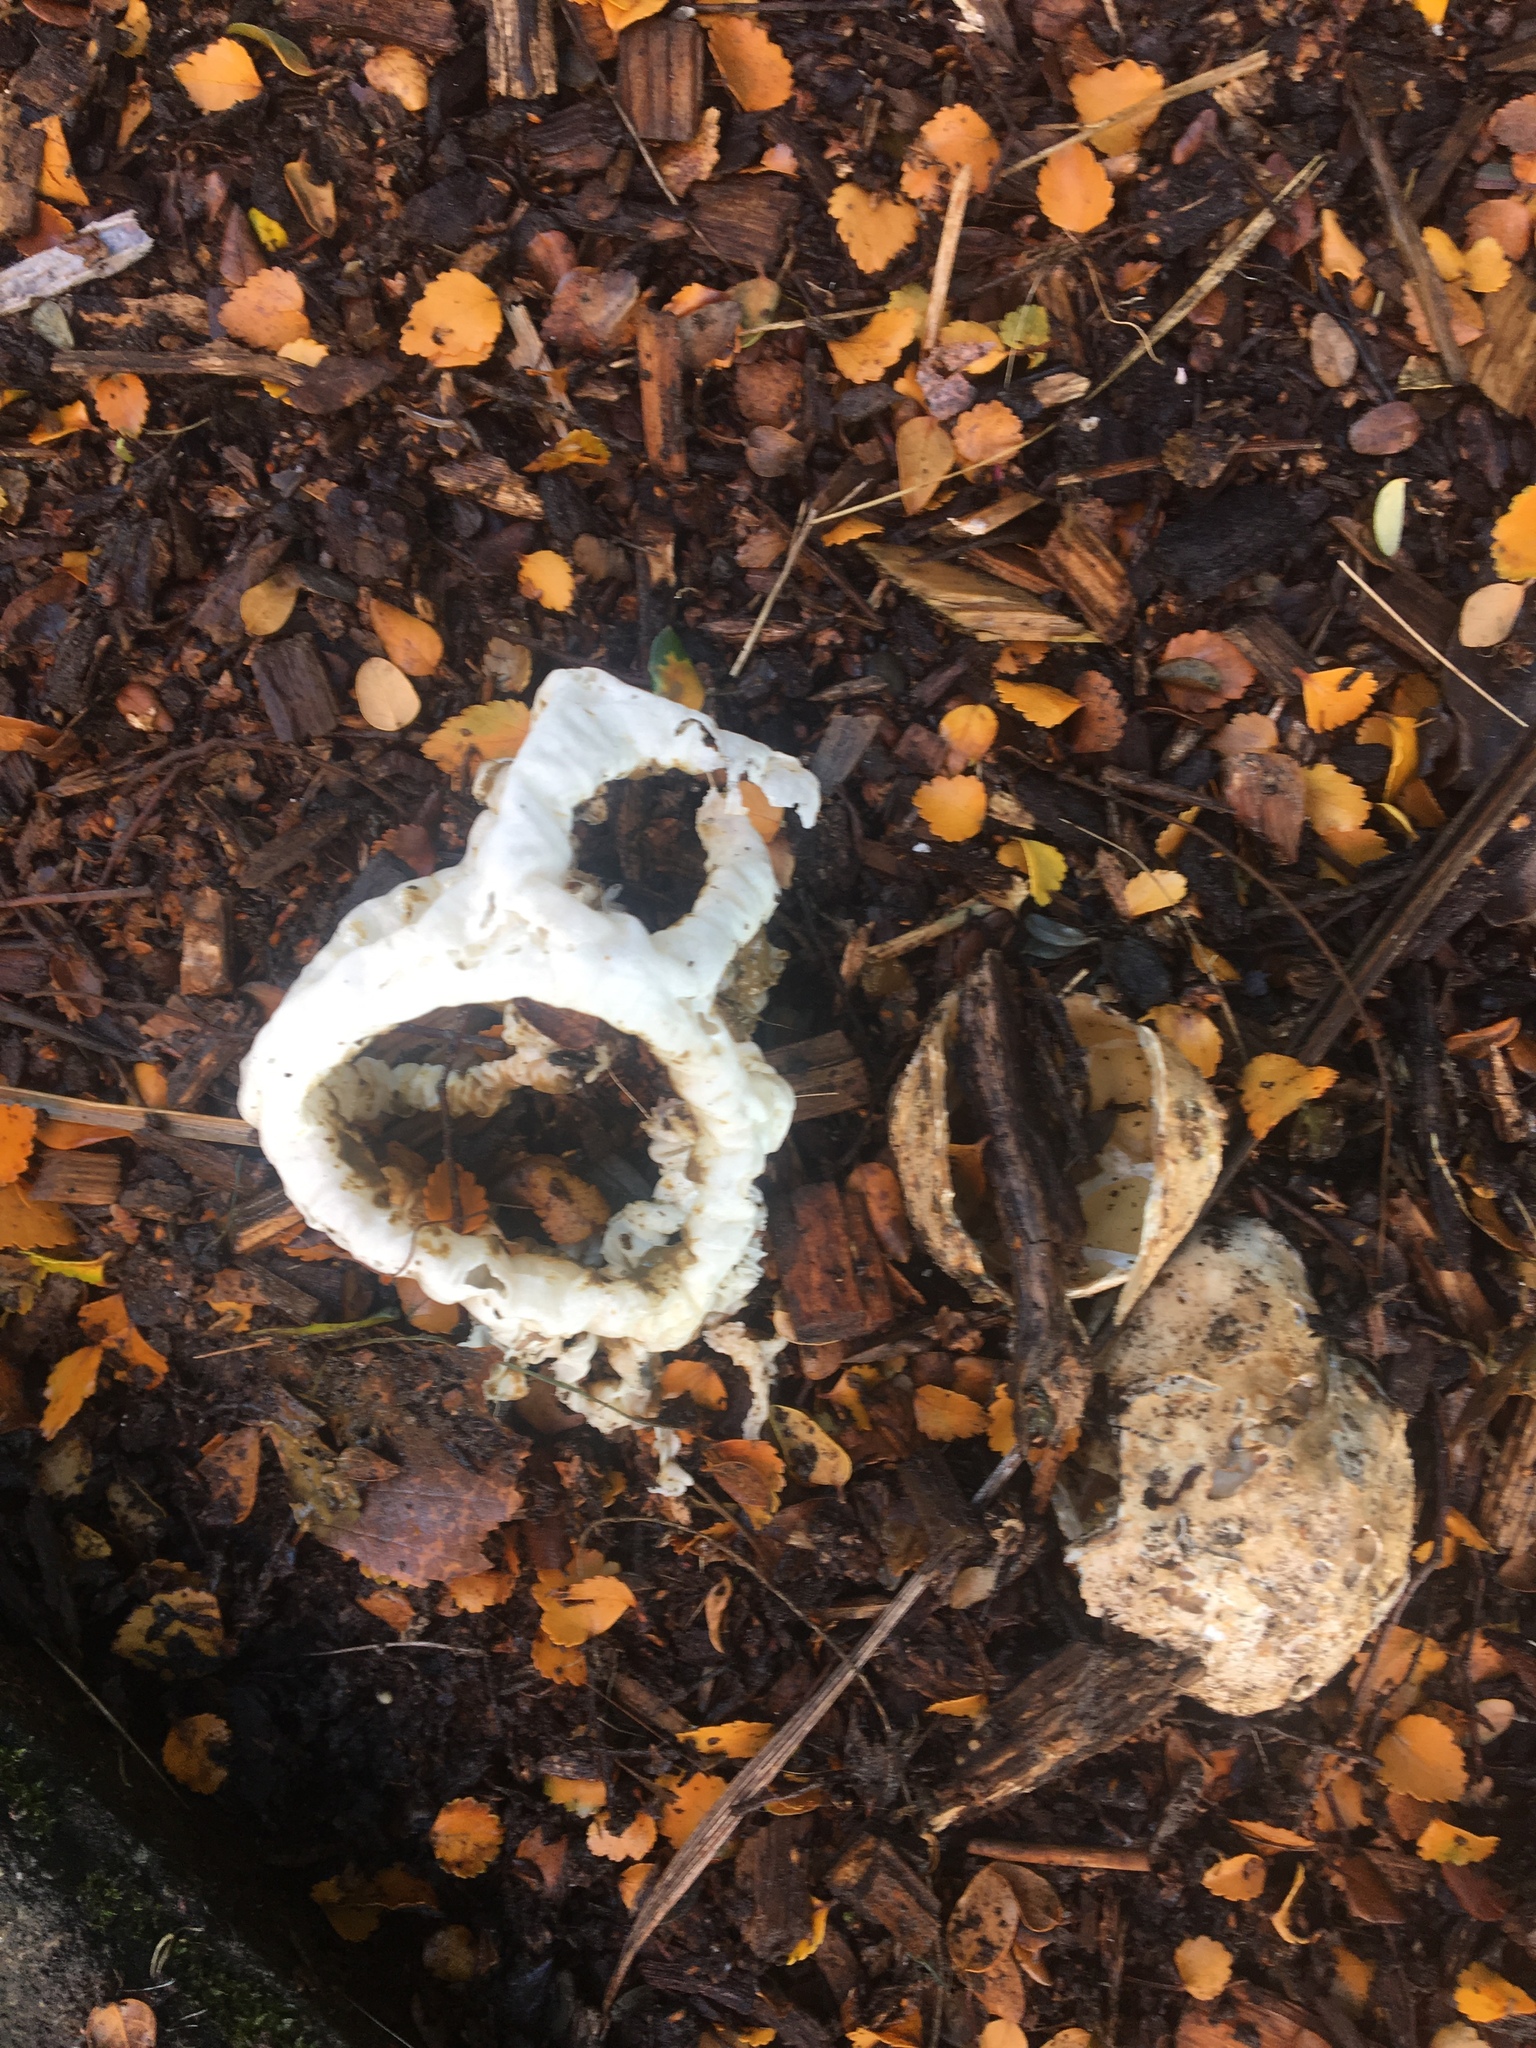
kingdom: Fungi
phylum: Basidiomycota
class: Agaricomycetes
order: Phallales
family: Phallaceae
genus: Ileodictyon
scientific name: Ileodictyon cibarium
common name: Basket fungus
